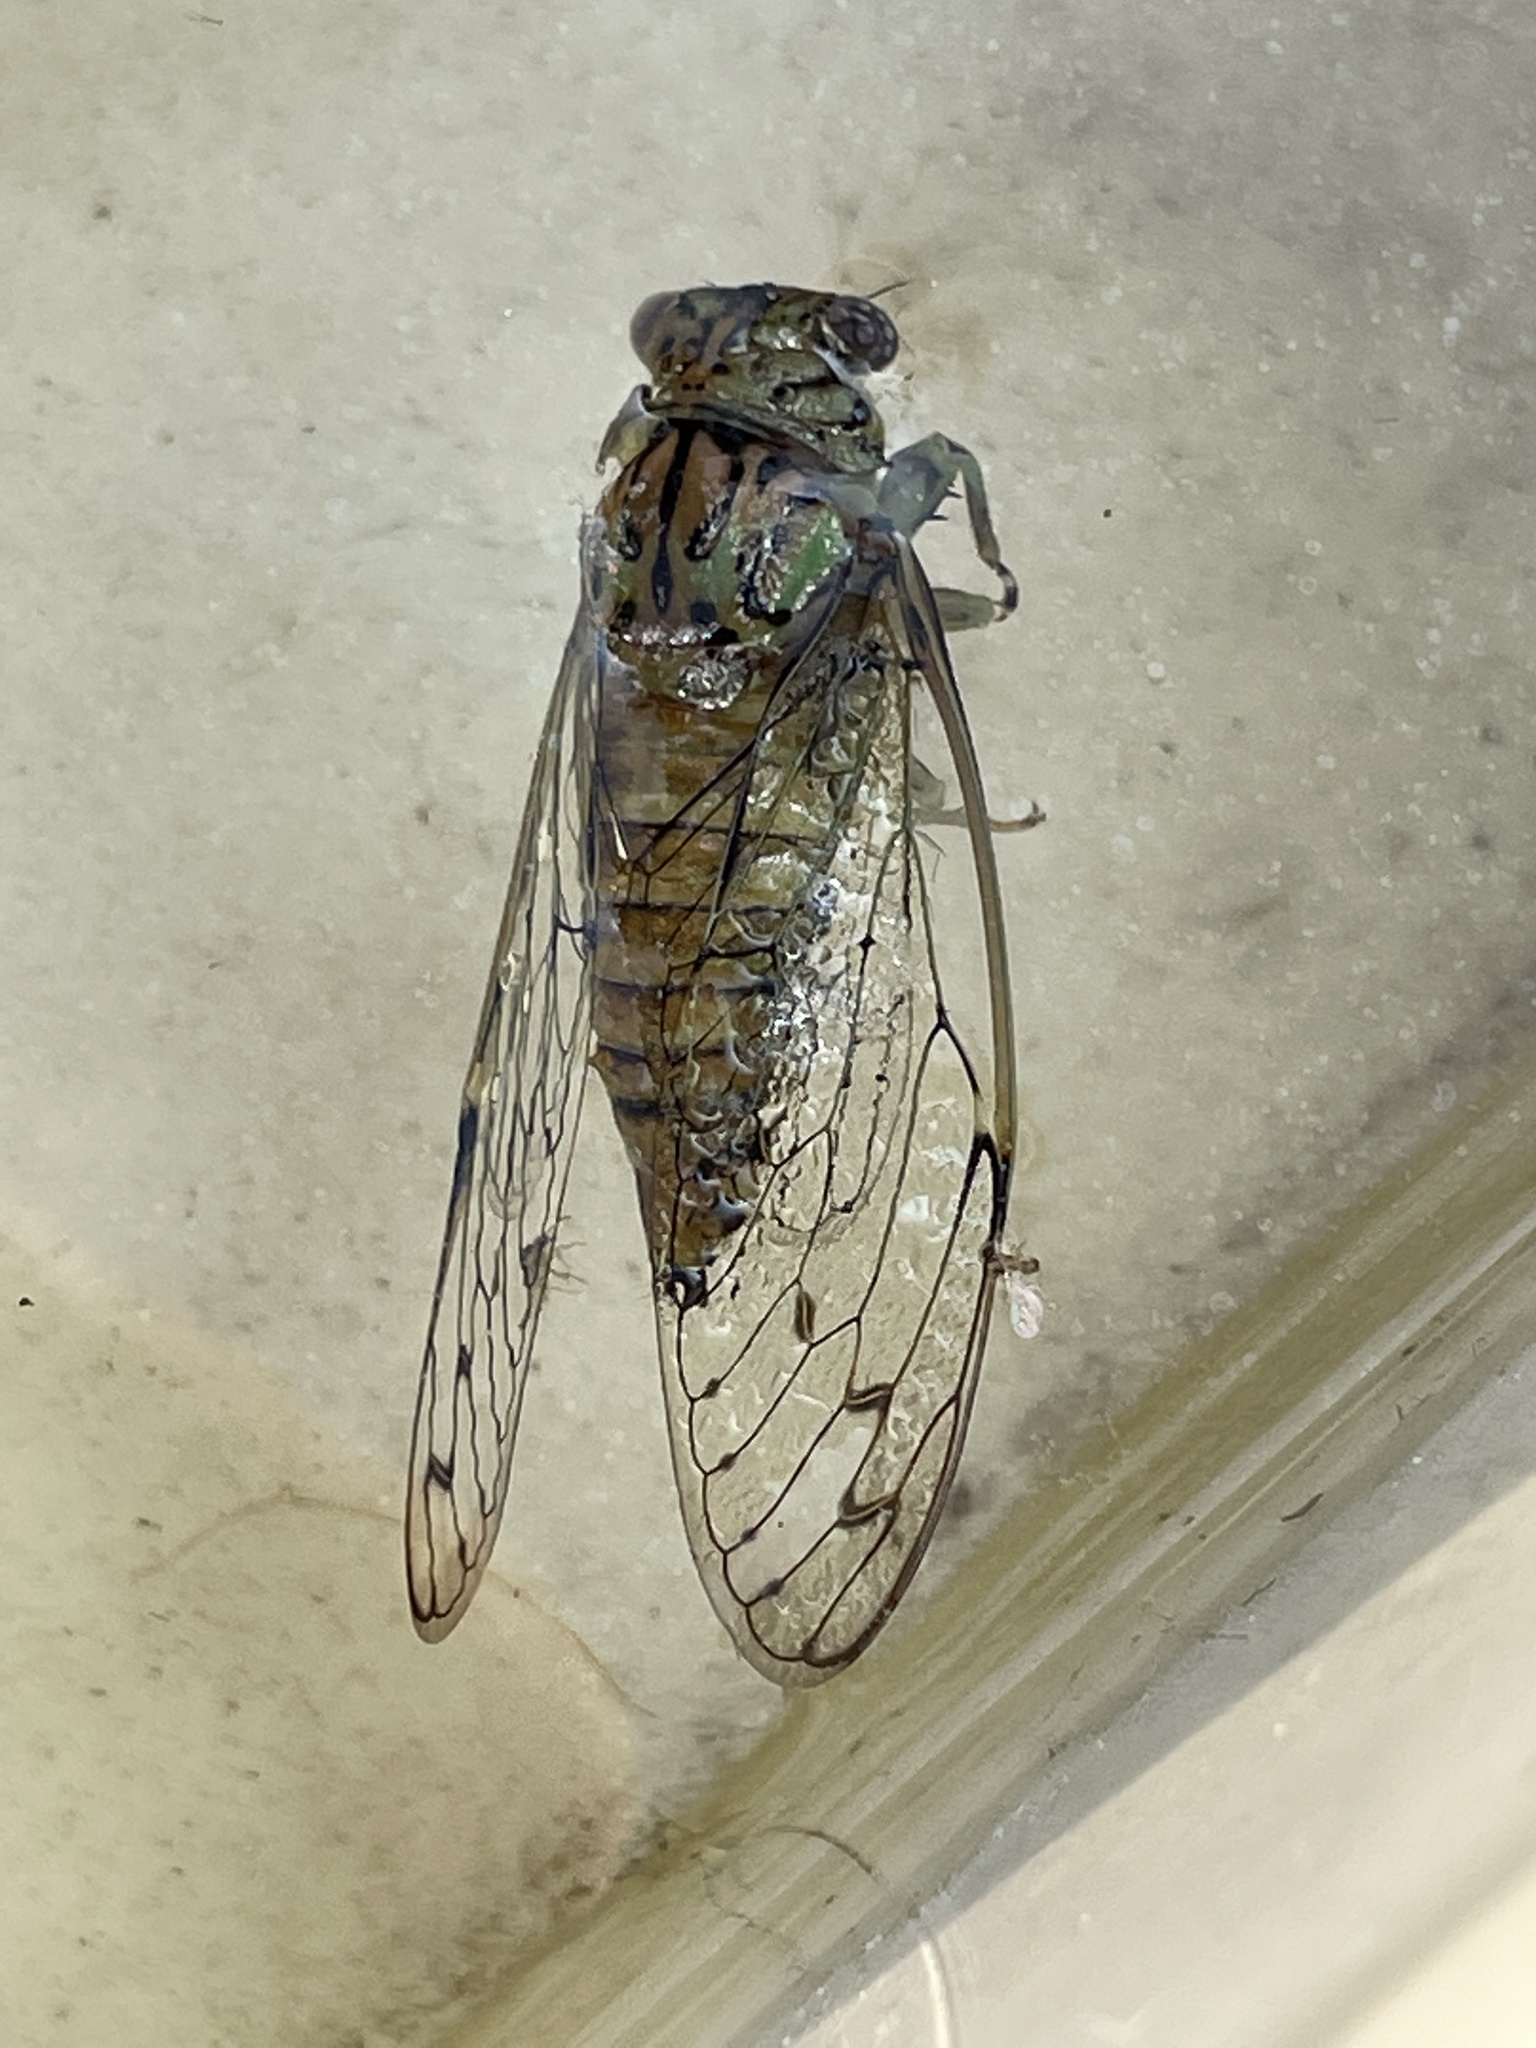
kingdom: Animalia
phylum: Arthropoda
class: Insecta
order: Hemiptera
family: Cicadidae
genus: Neocicada
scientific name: Neocicada hieroglyphica
